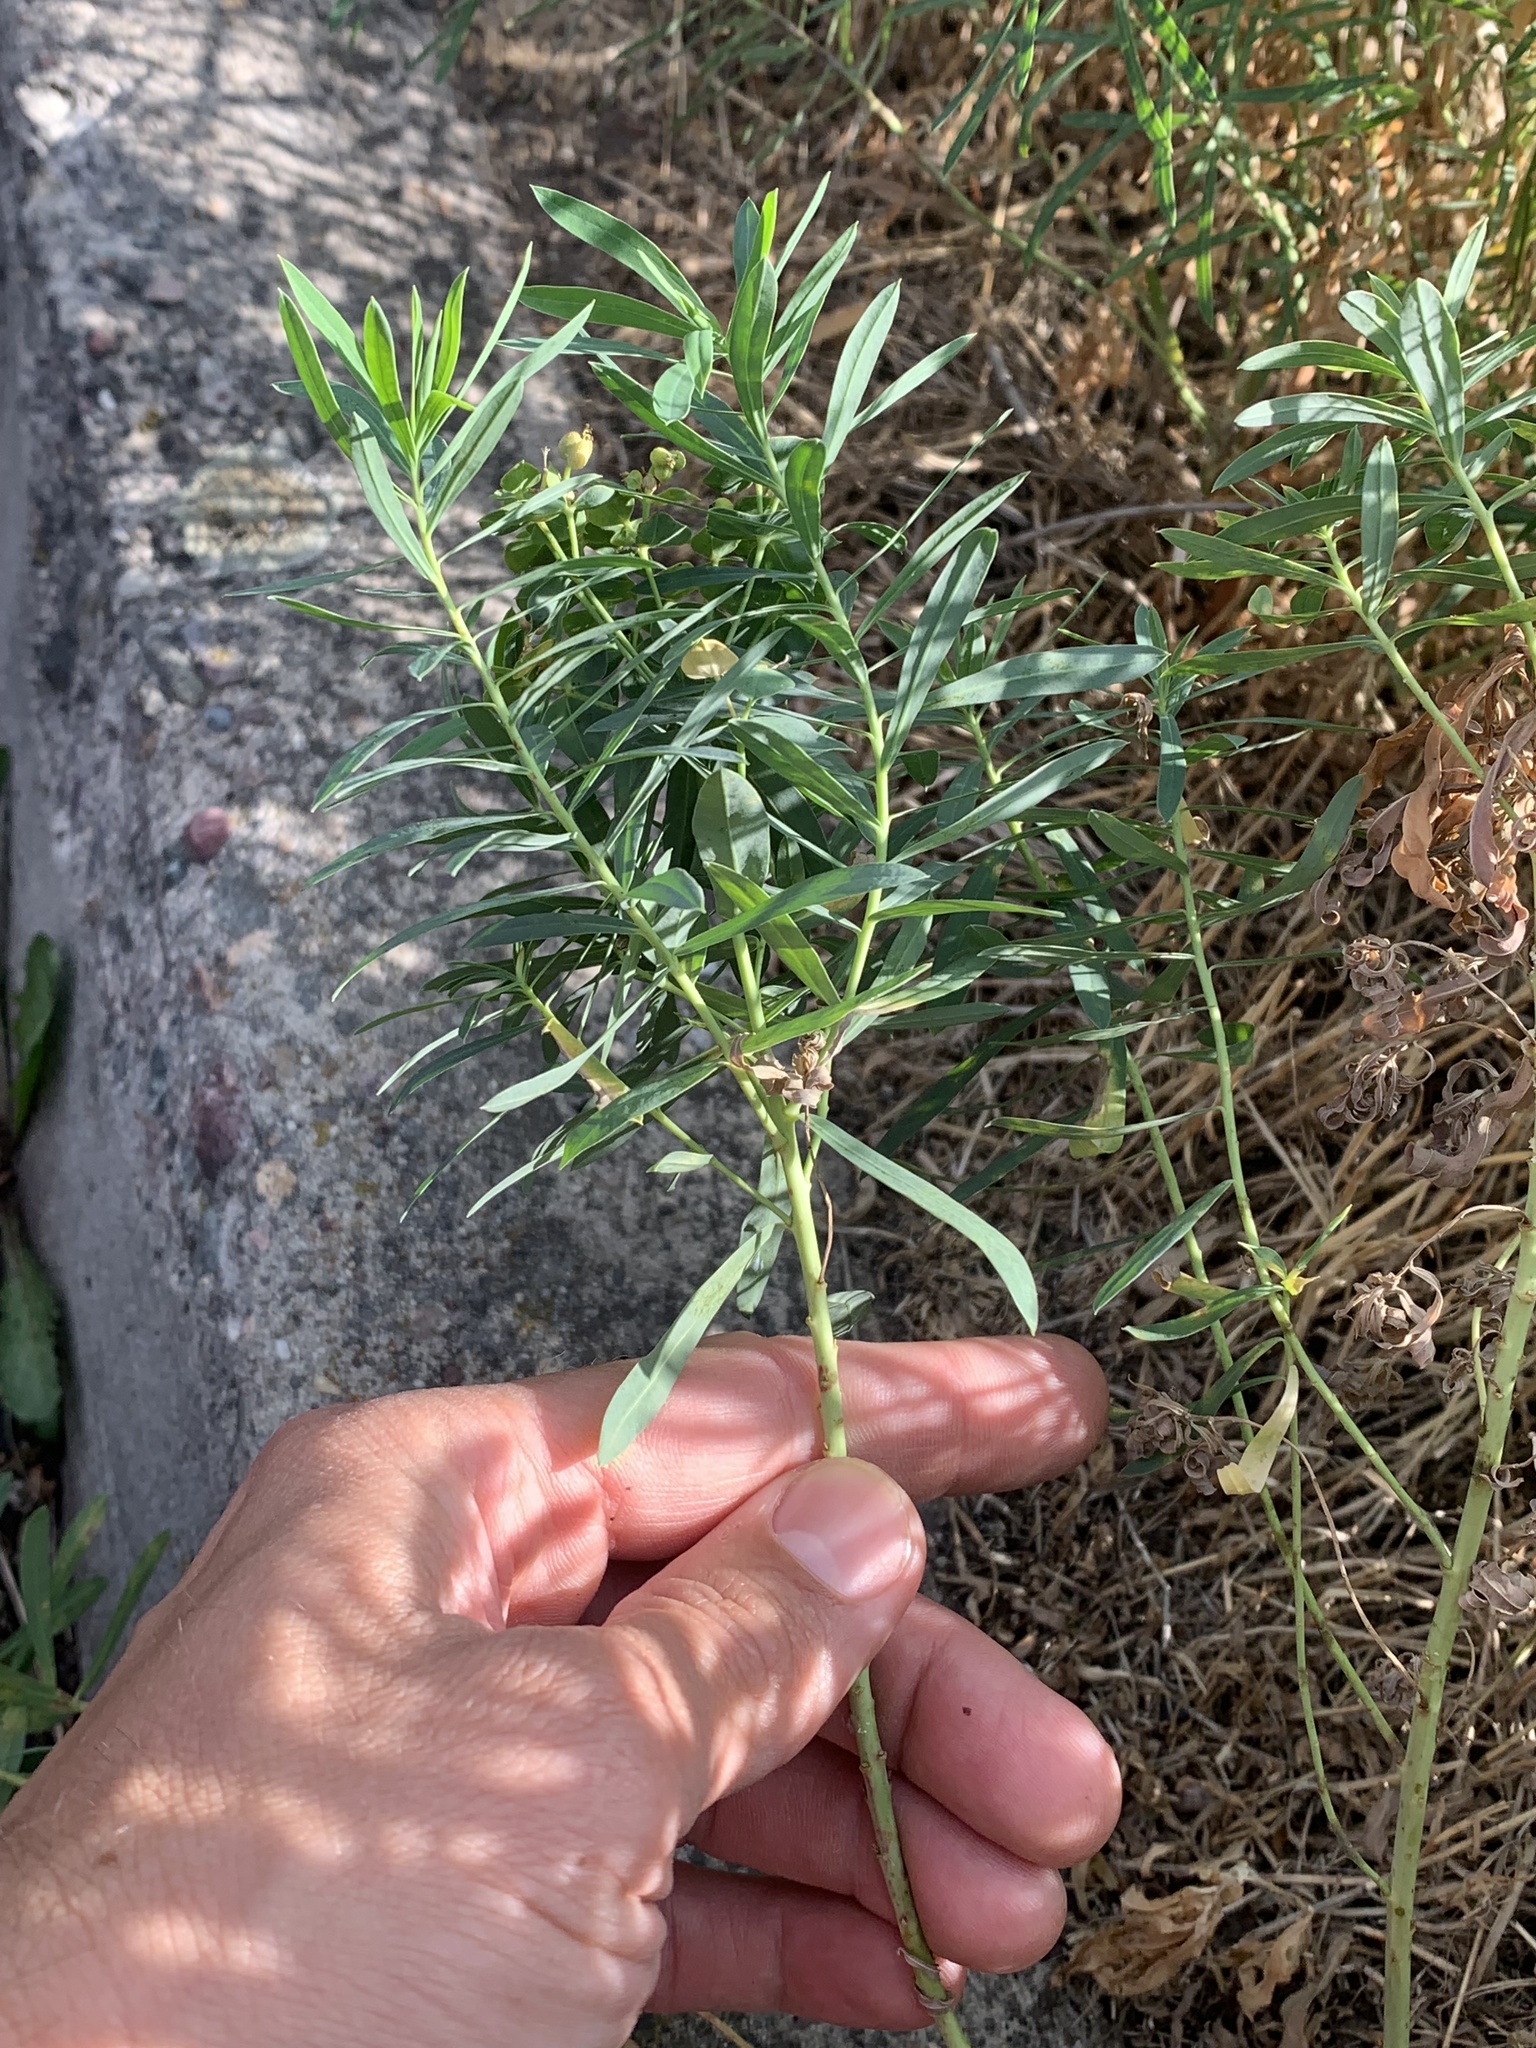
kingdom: Plantae
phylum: Tracheophyta
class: Magnoliopsida
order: Malpighiales
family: Euphorbiaceae
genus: Euphorbia
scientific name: Euphorbia virgata
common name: Leafy spurge
